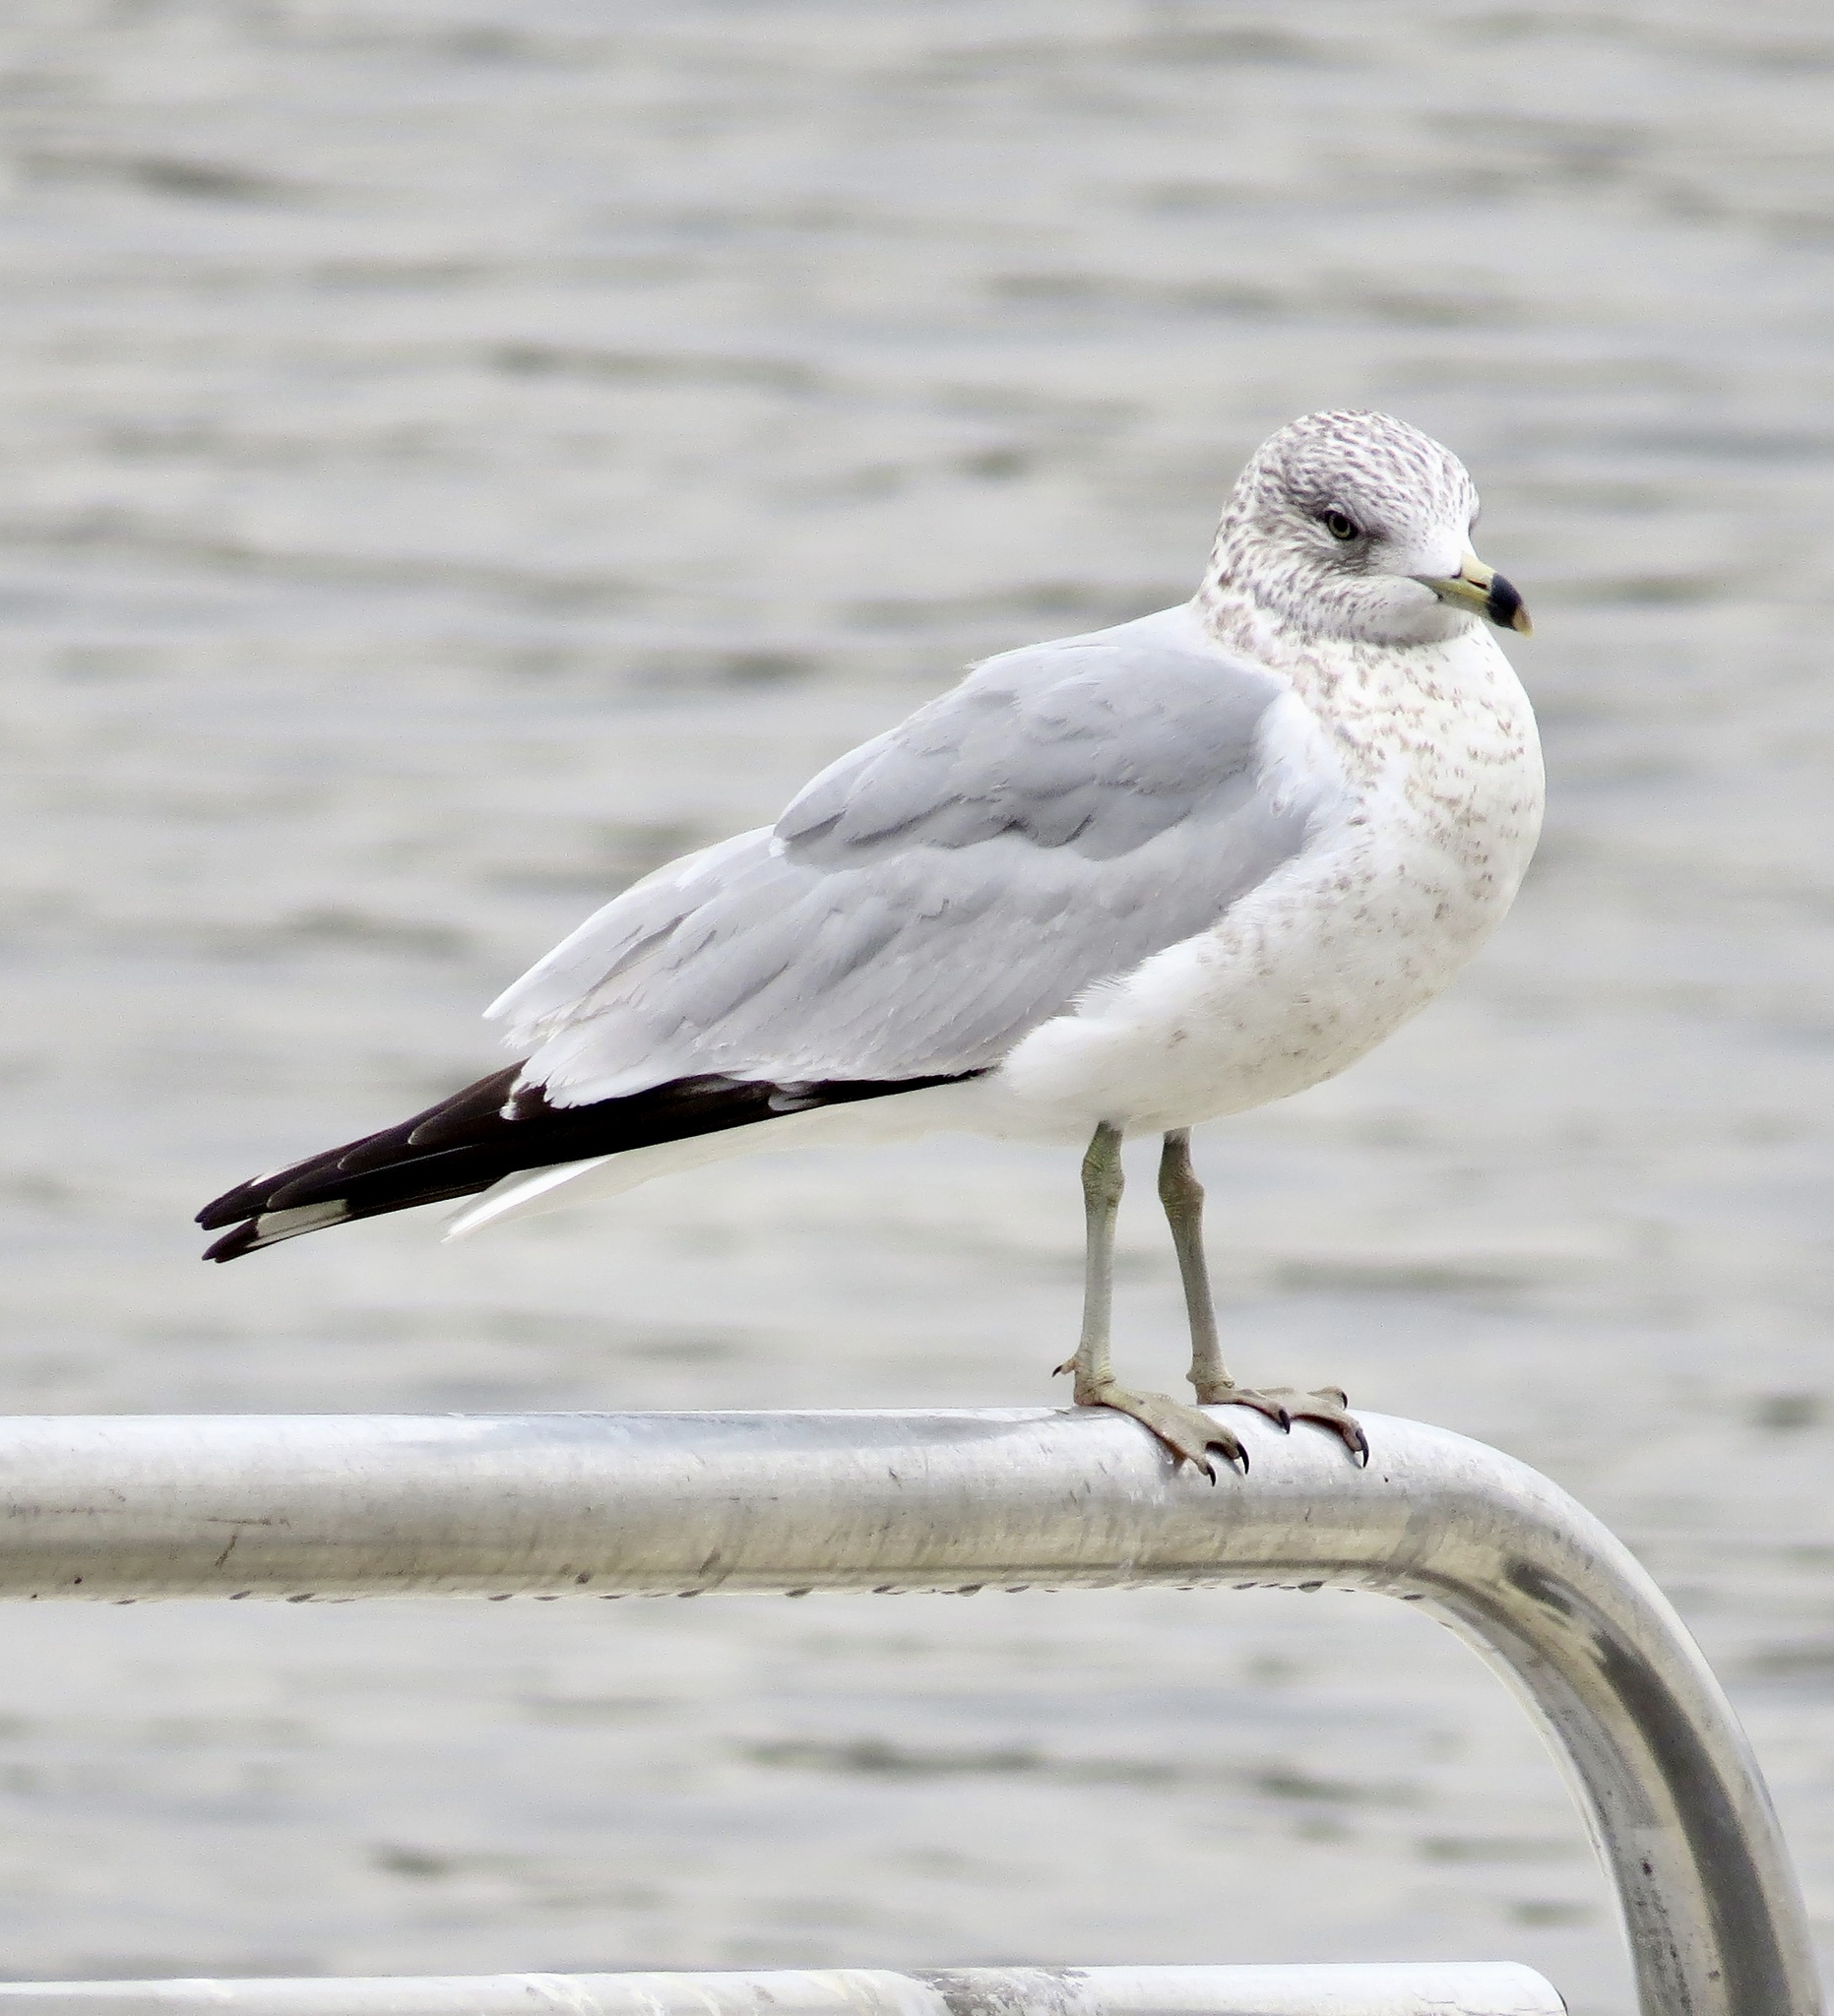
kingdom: Animalia
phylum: Chordata
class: Aves
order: Charadriiformes
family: Laridae
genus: Larus
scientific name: Larus delawarensis
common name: Ring-billed gull
